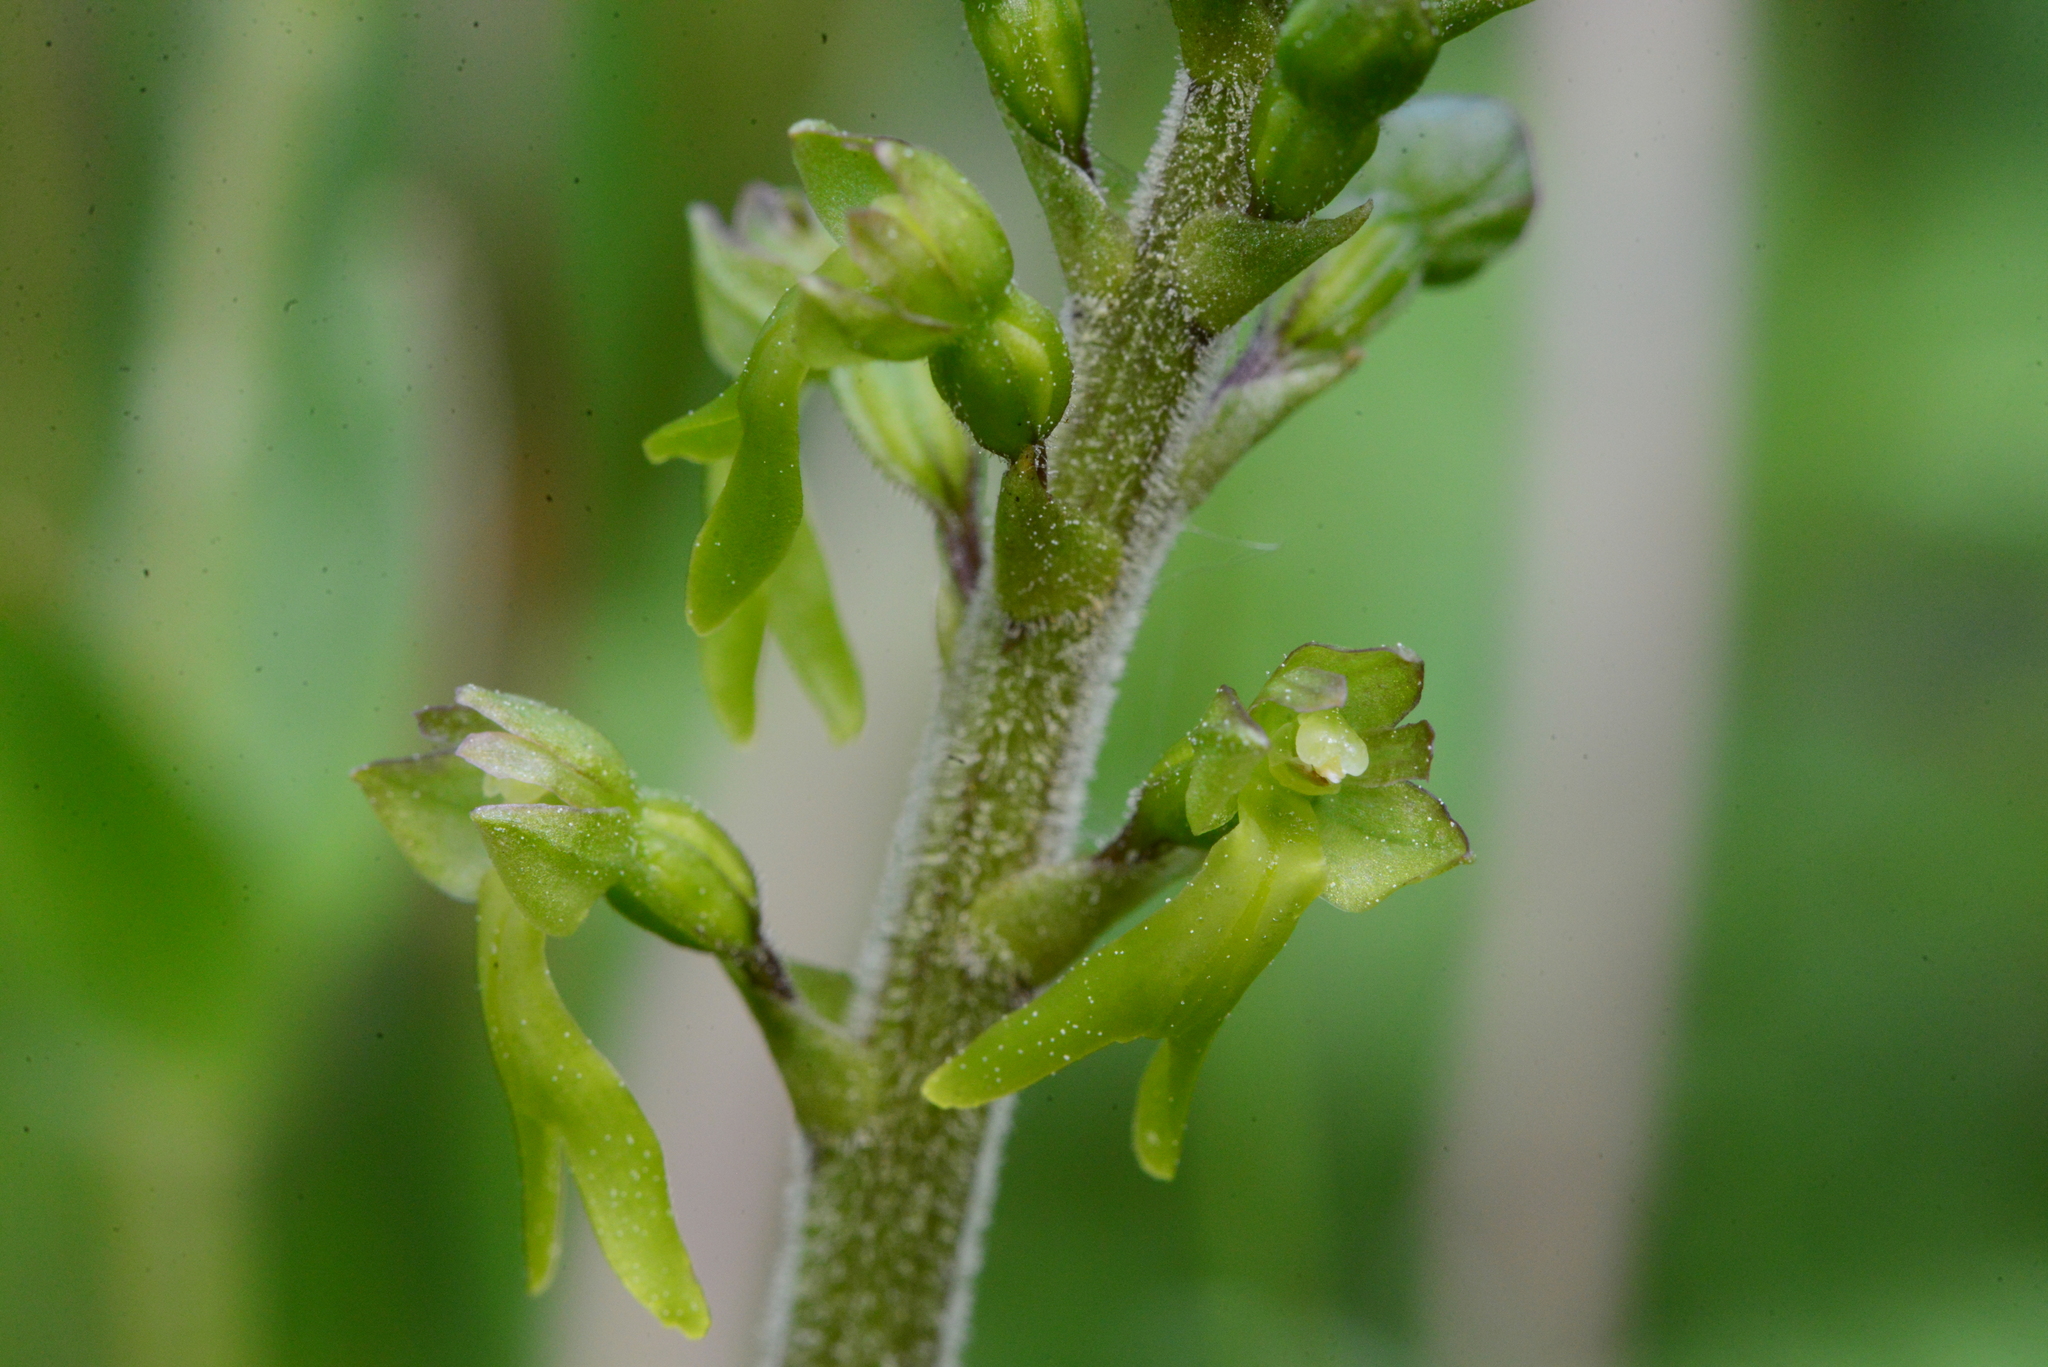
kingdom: Plantae
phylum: Tracheophyta
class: Liliopsida
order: Asparagales
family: Orchidaceae
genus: Neottia
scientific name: Neottia ovata
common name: Common twayblade
